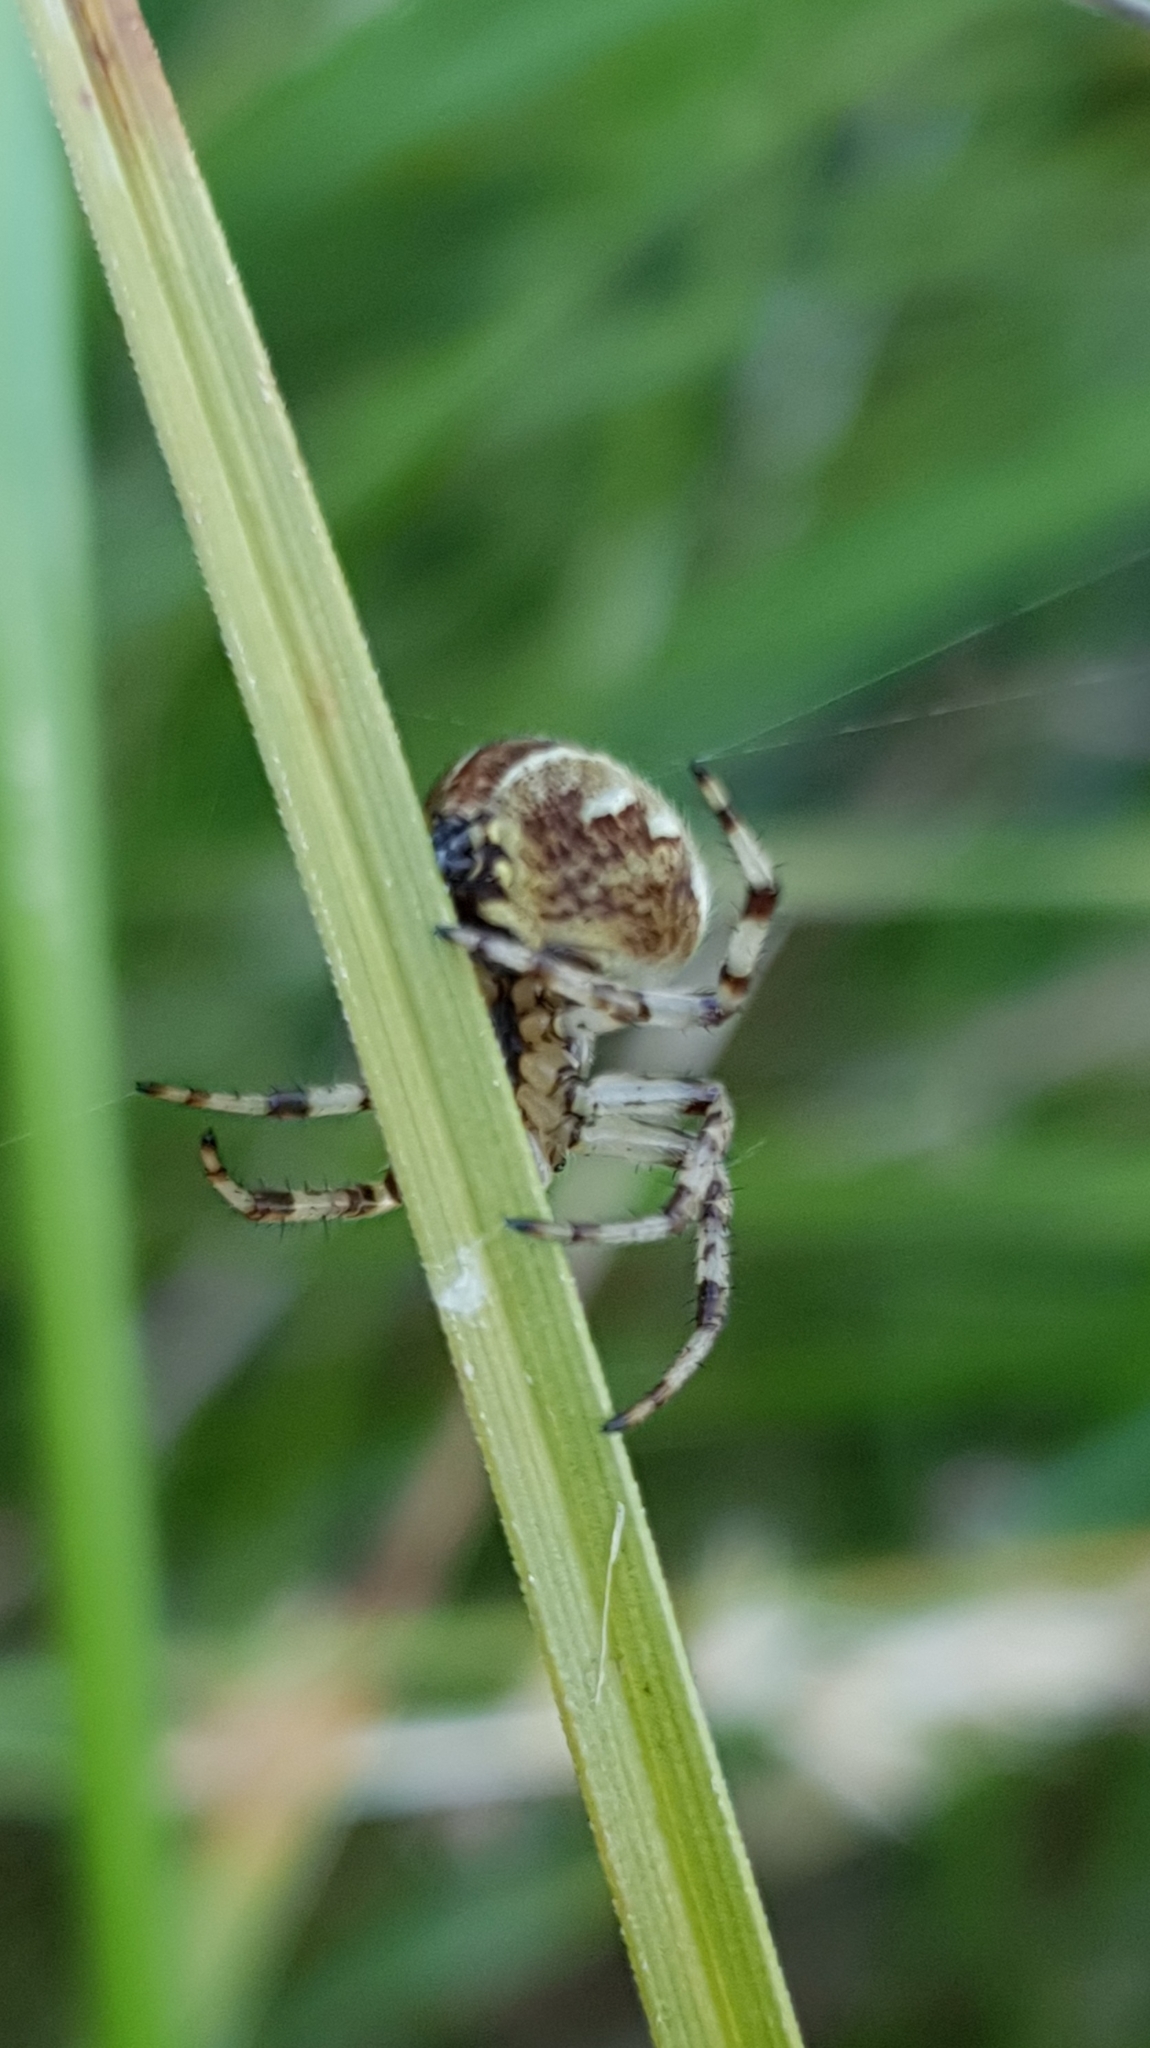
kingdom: Animalia
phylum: Arthropoda
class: Arachnida
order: Araneae
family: Araneidae
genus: Araneus
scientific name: Araneus quadratus
